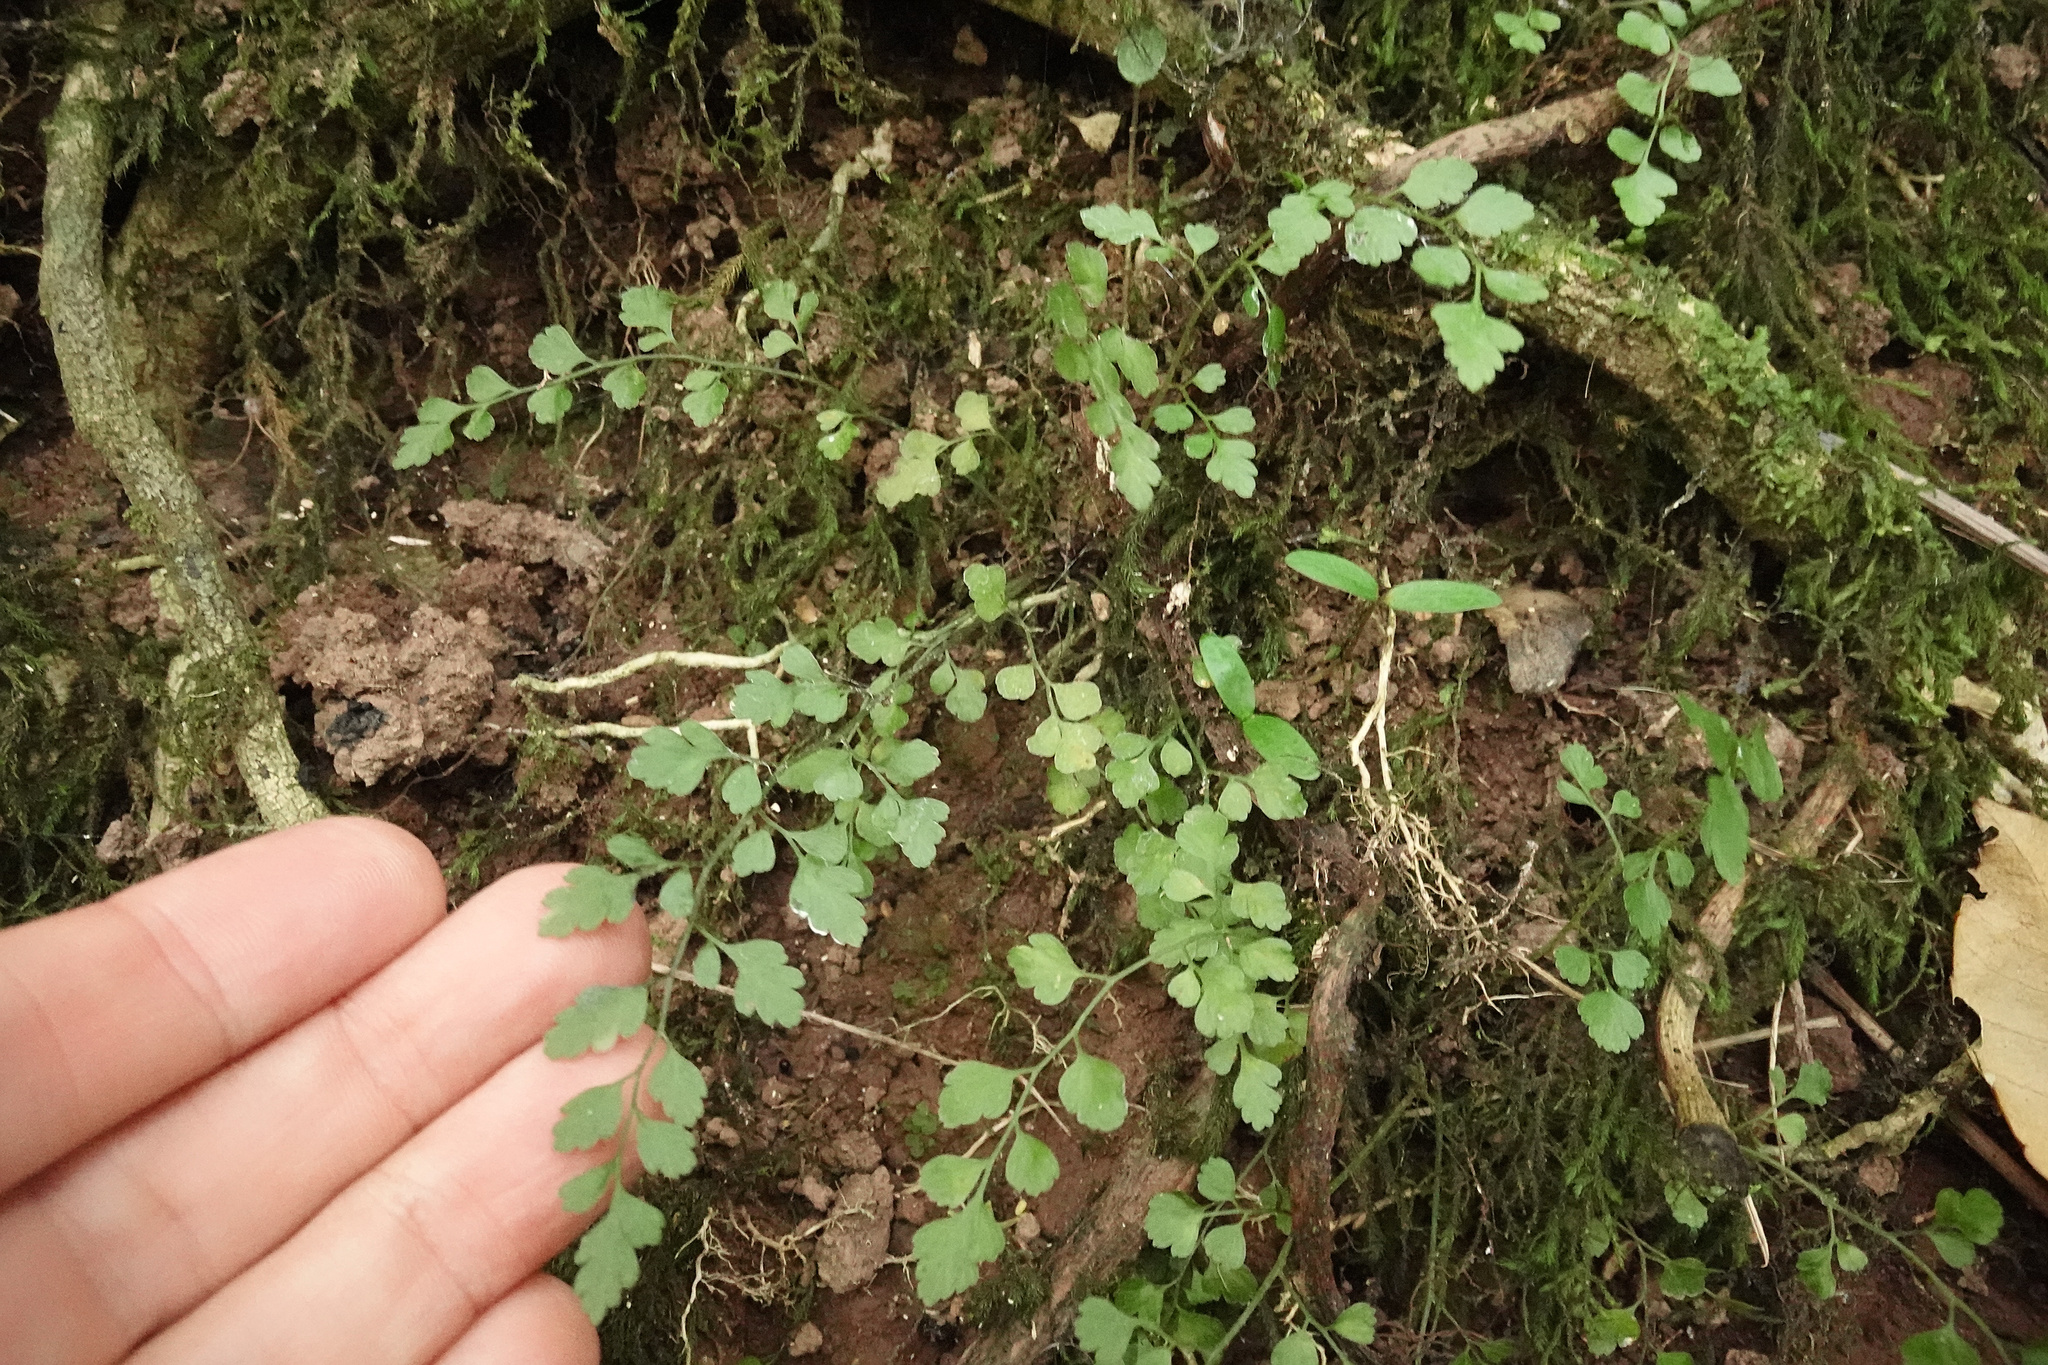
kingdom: Plantae
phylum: Tracheophyta
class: Polypodiopsida
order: Polypodiales
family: Aspleniaceae
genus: Asplenium
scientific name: Asplenium hookerianum
